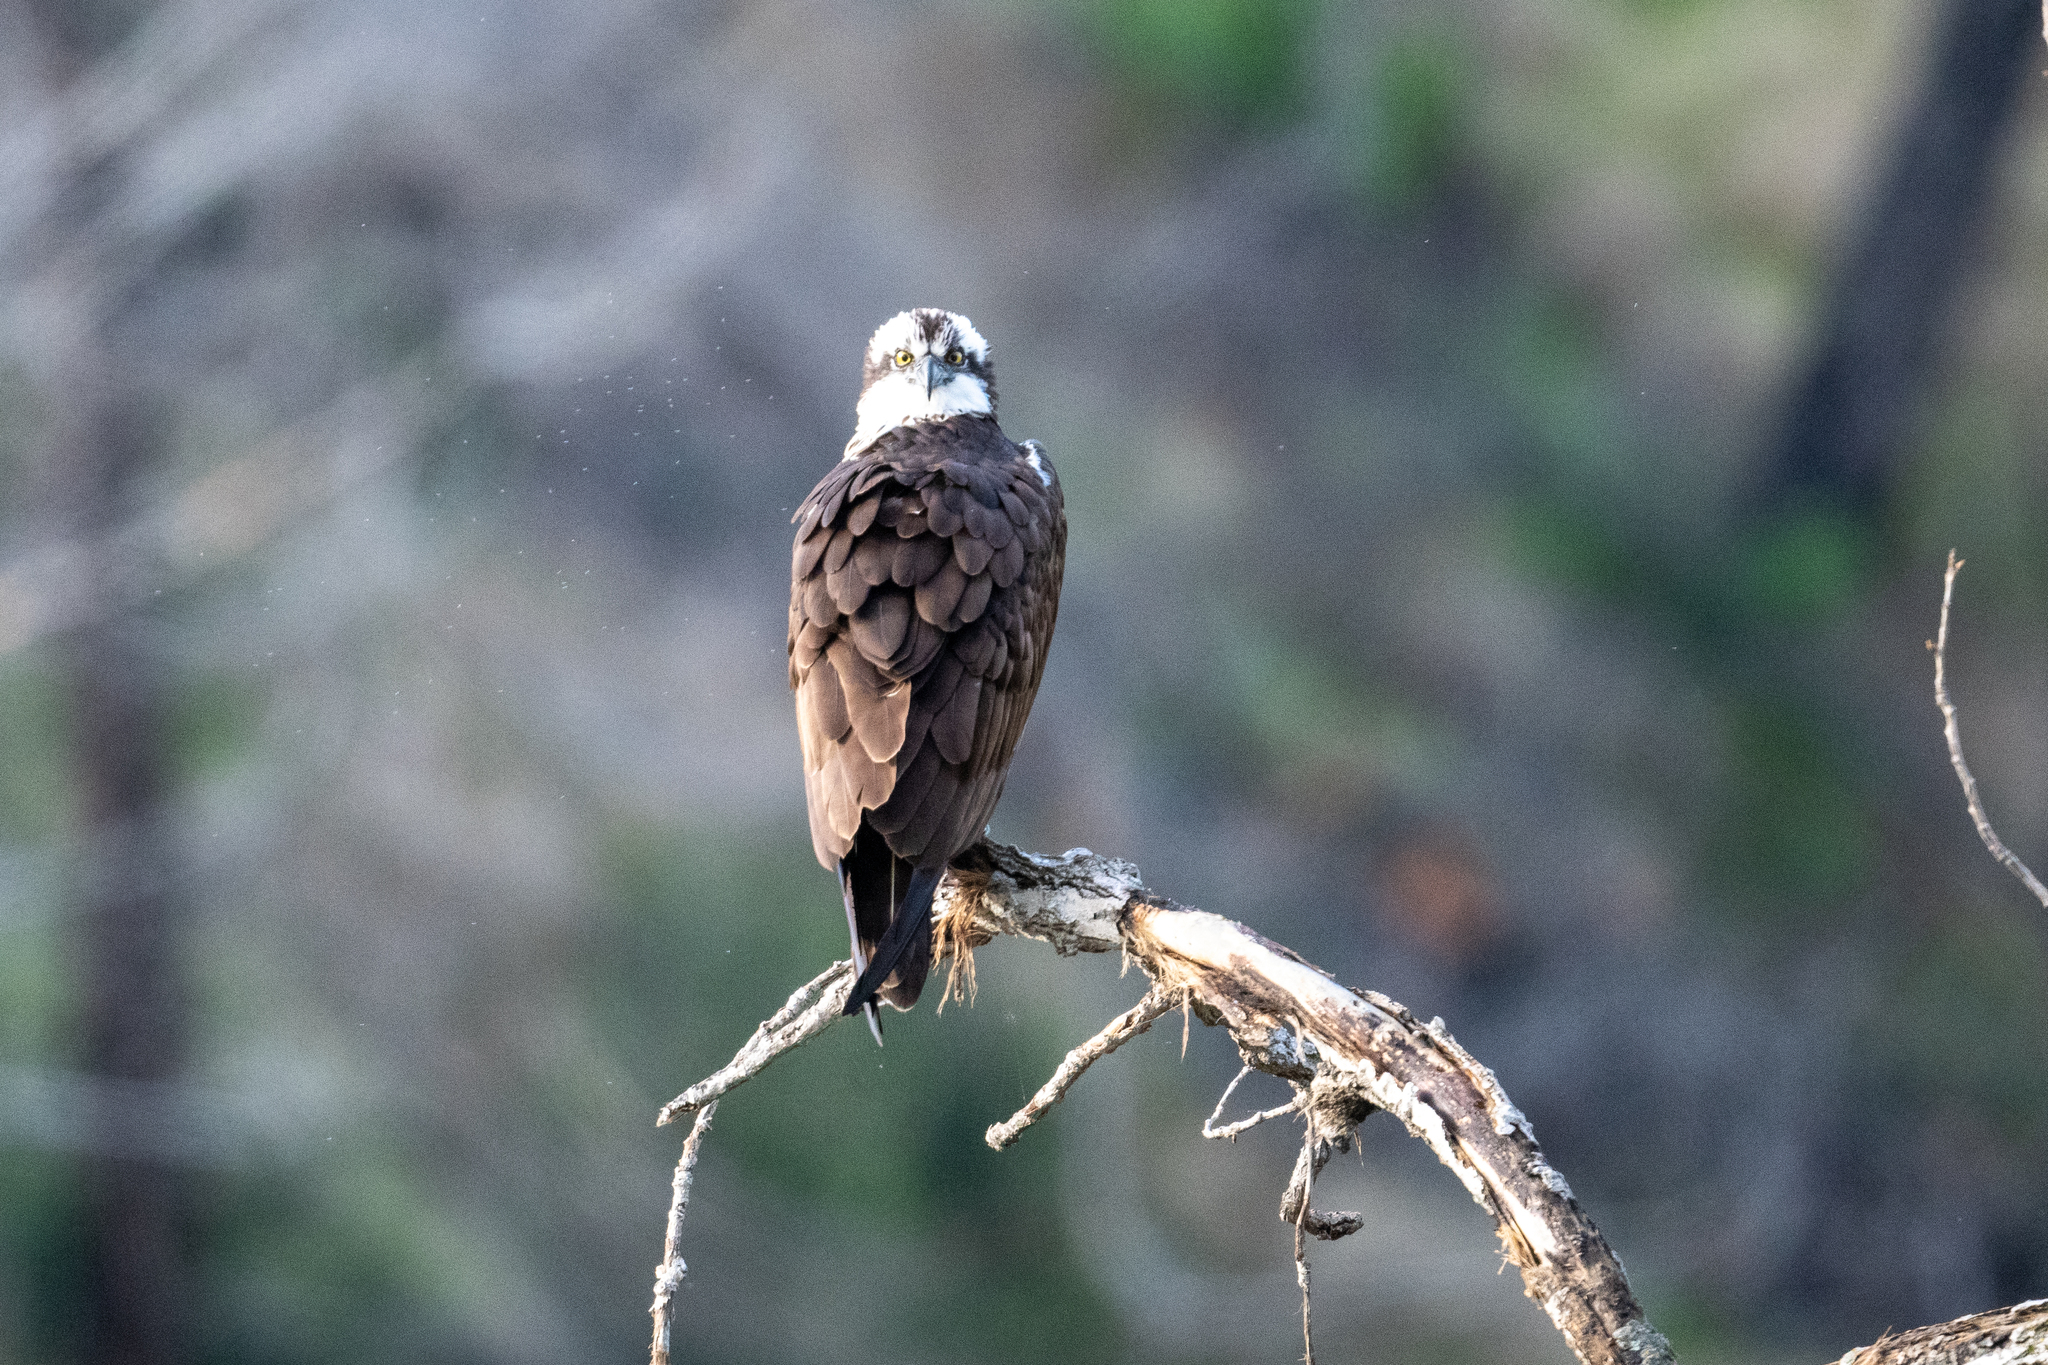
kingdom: Animalia
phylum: Chordata
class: Aves
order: Accipitriformes
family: Pandionidae
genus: Pandion
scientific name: Pandion haliaetus
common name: Osprey
